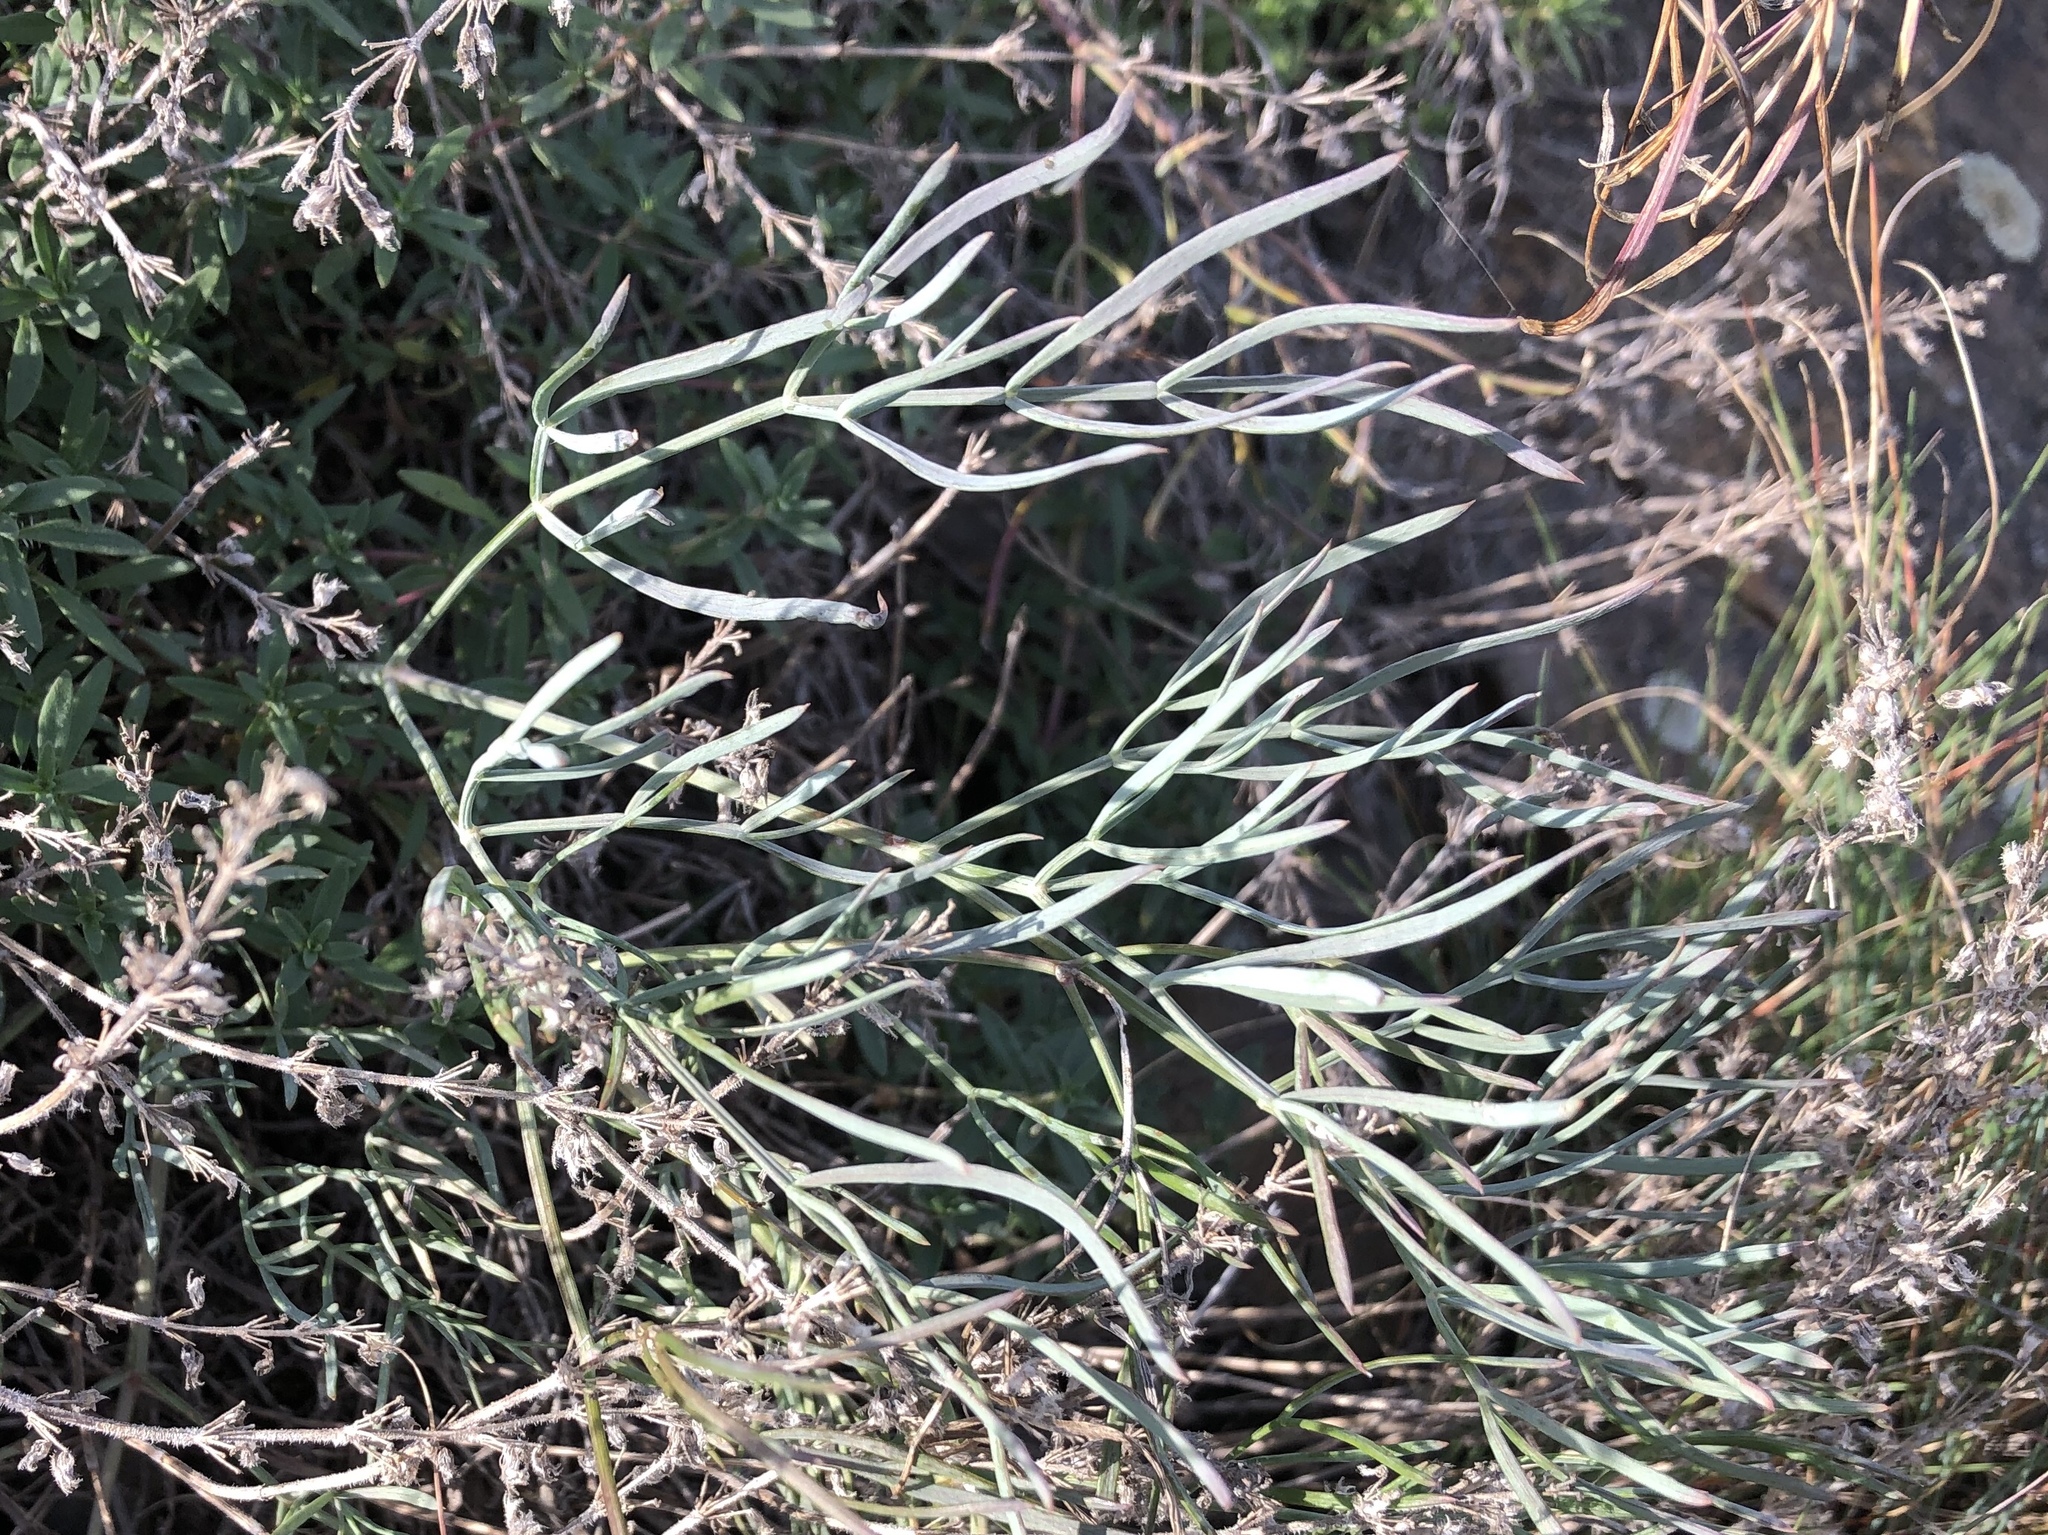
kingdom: Plantae
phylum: Tracheophyta
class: Magnoliopsida
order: Apiales
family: Apiaceae
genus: Seseli
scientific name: Seseli osseum
